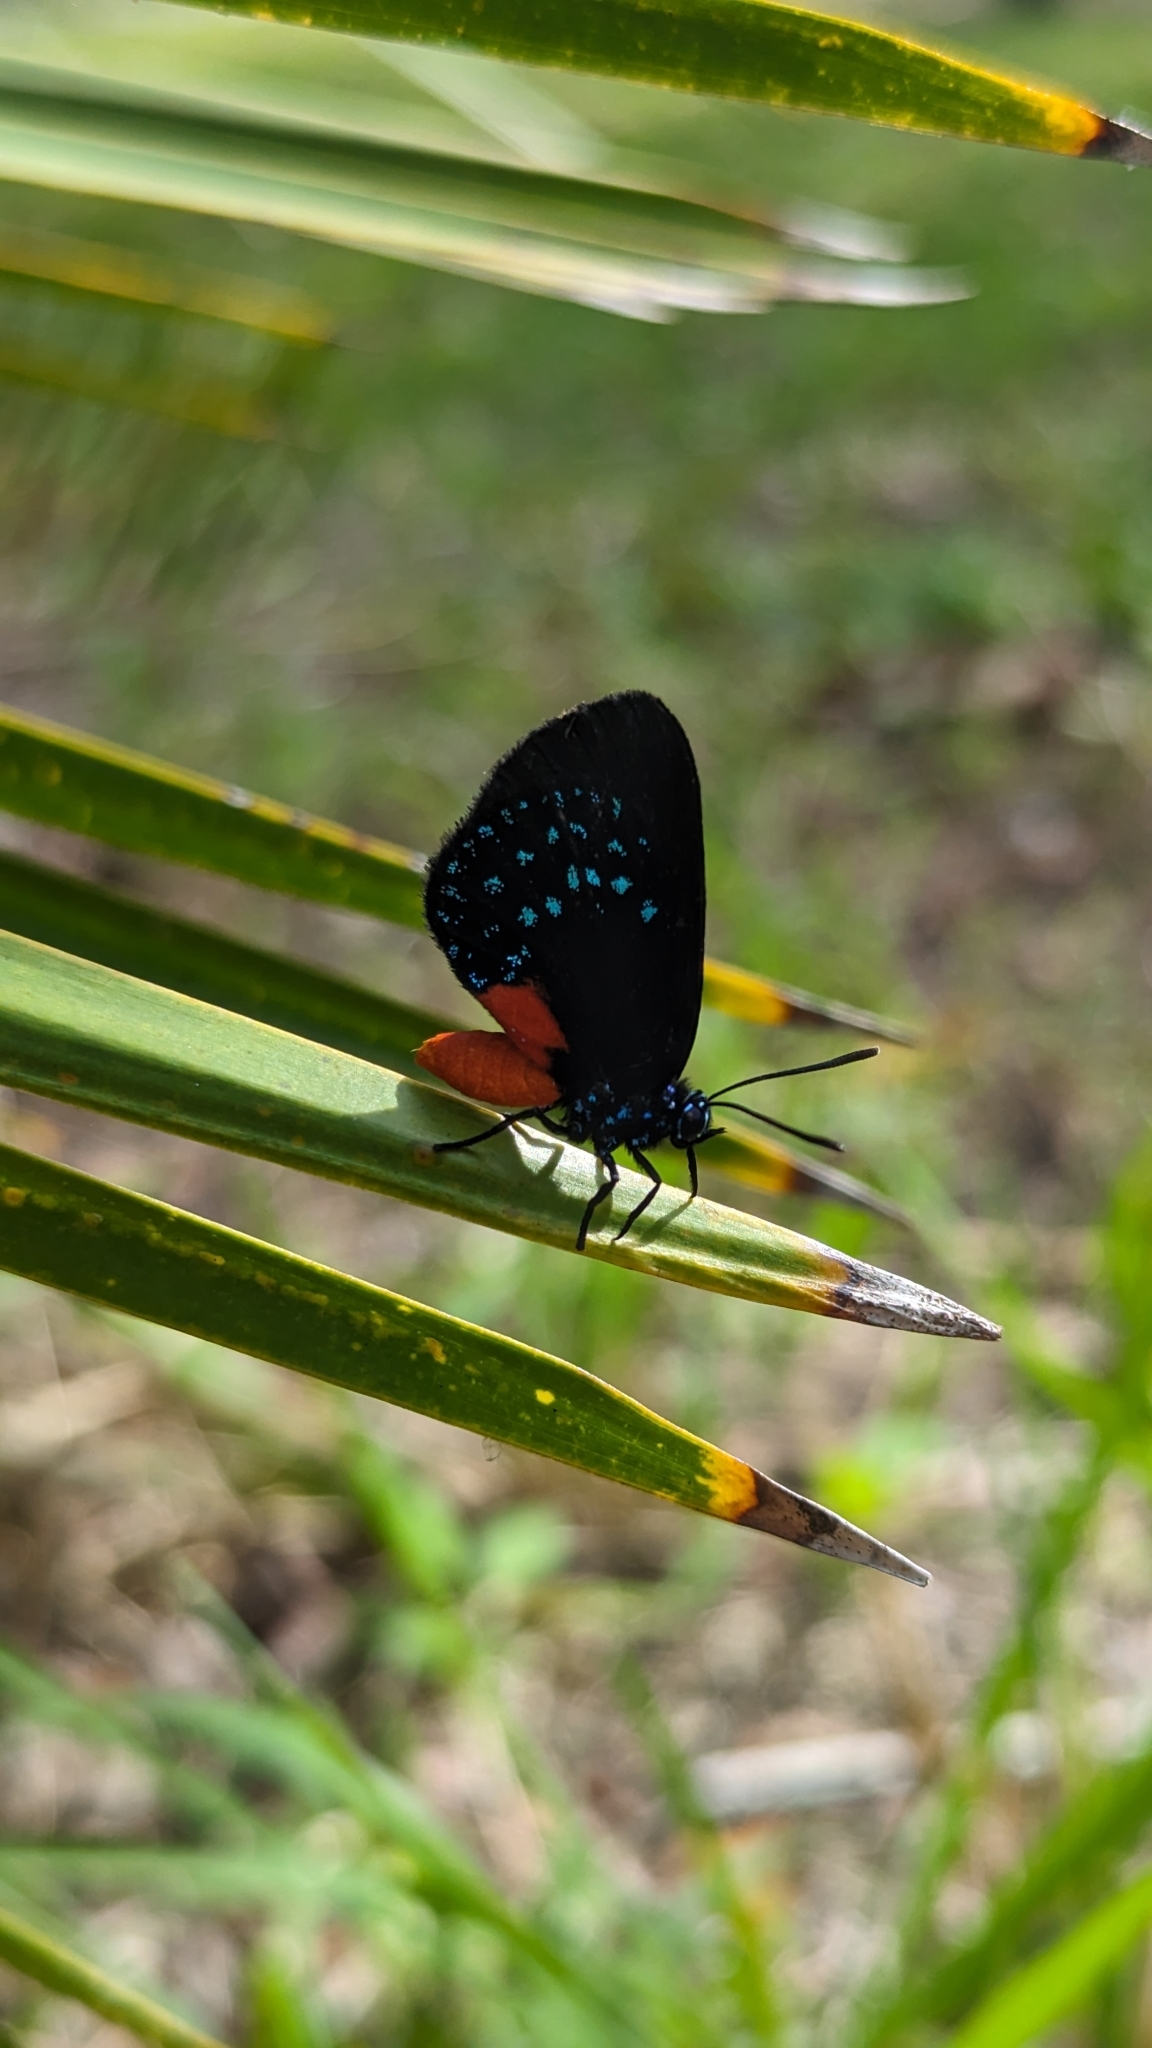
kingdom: Animalia
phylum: Arthropoda
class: Insecta
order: Lepidoptera
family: Lycaenidae
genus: Eumaeus
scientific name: Eumaeus atala
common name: Atala
